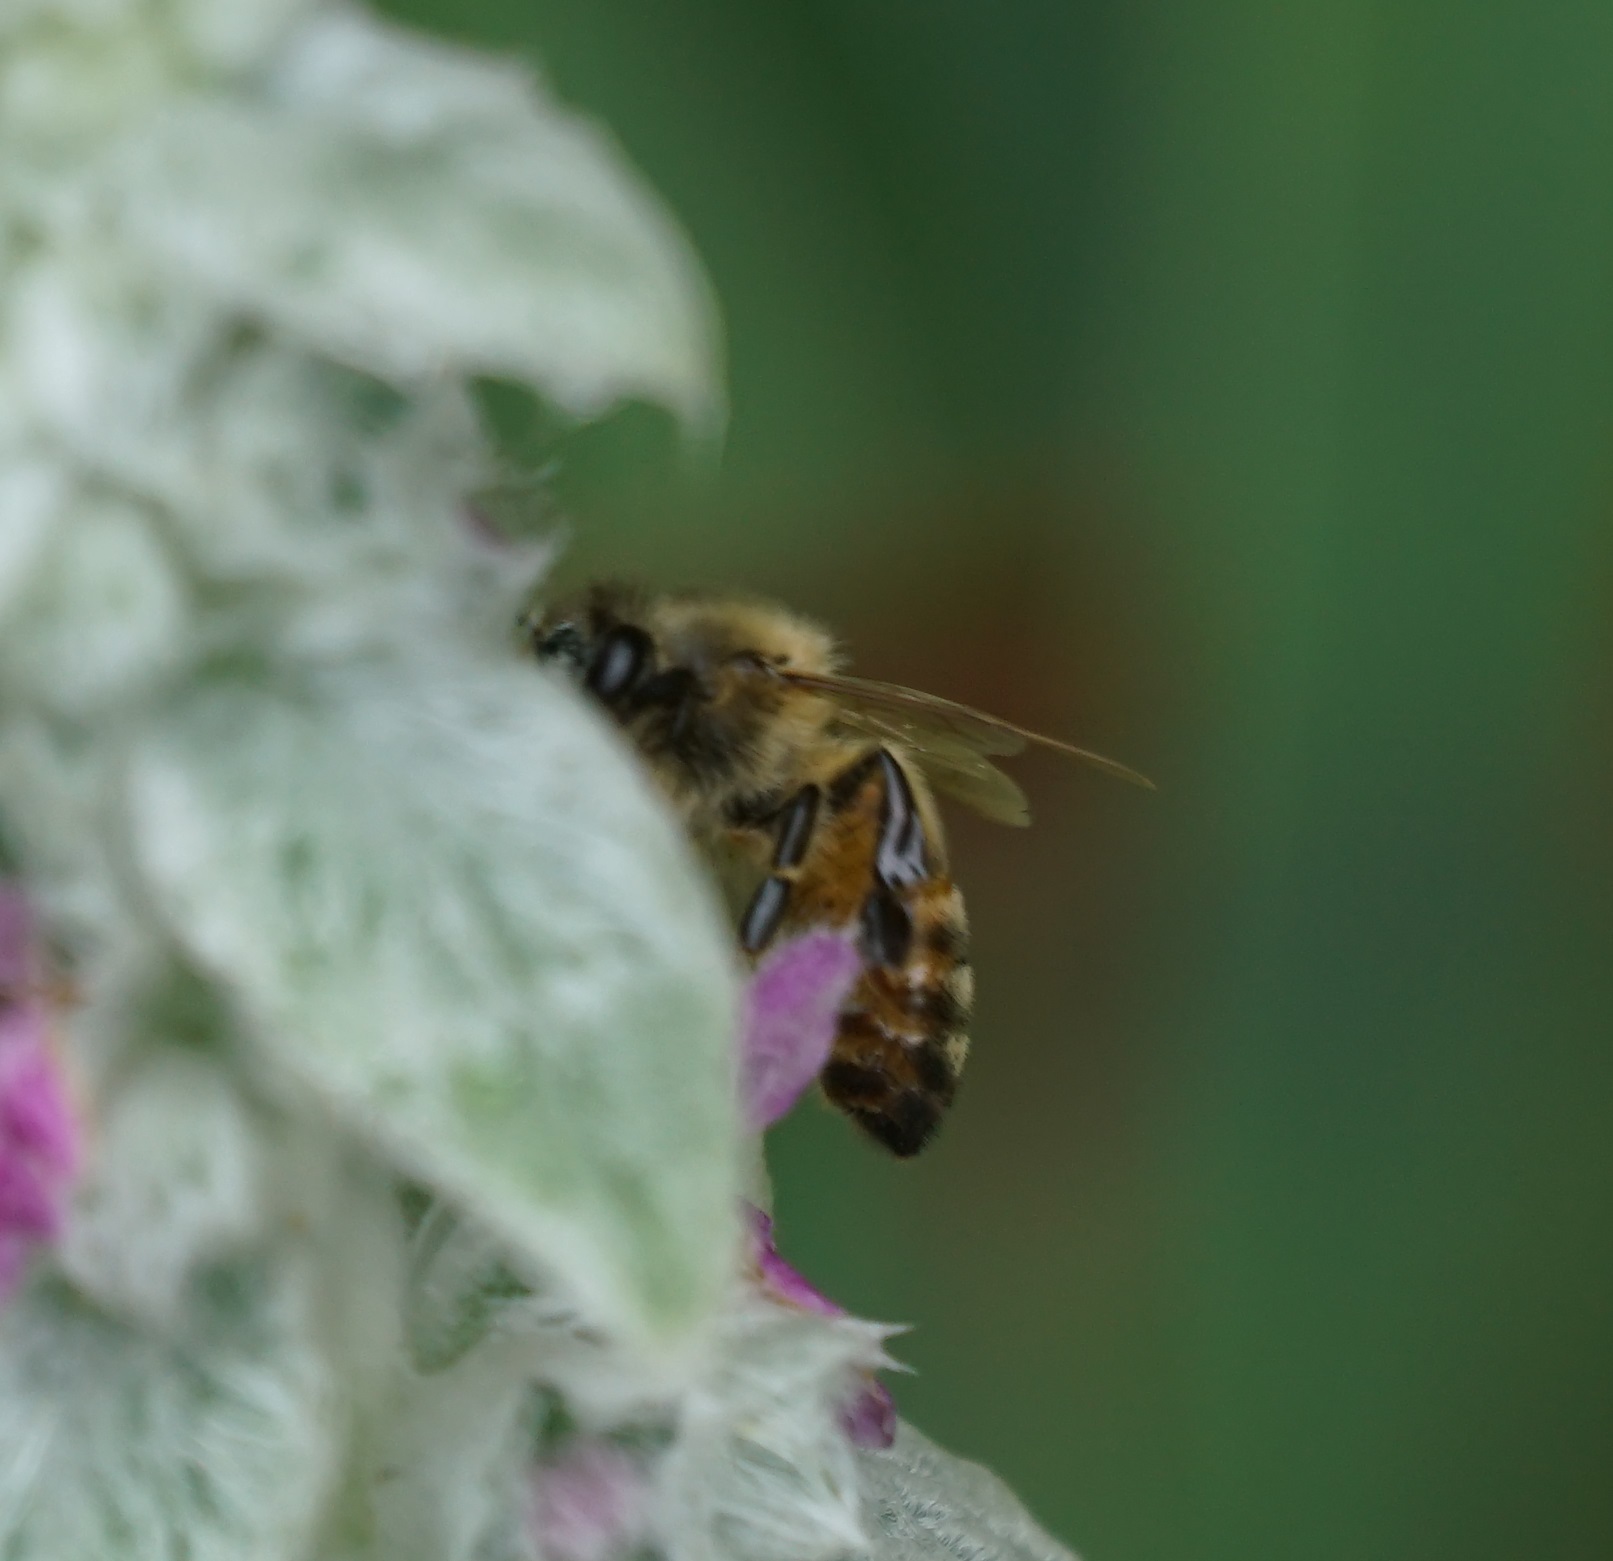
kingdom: Animalia
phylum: Arthropoda
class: Insecta
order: Hymenoptera
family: Apidae
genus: Apis
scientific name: Apis mellifera
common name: Honey bee
